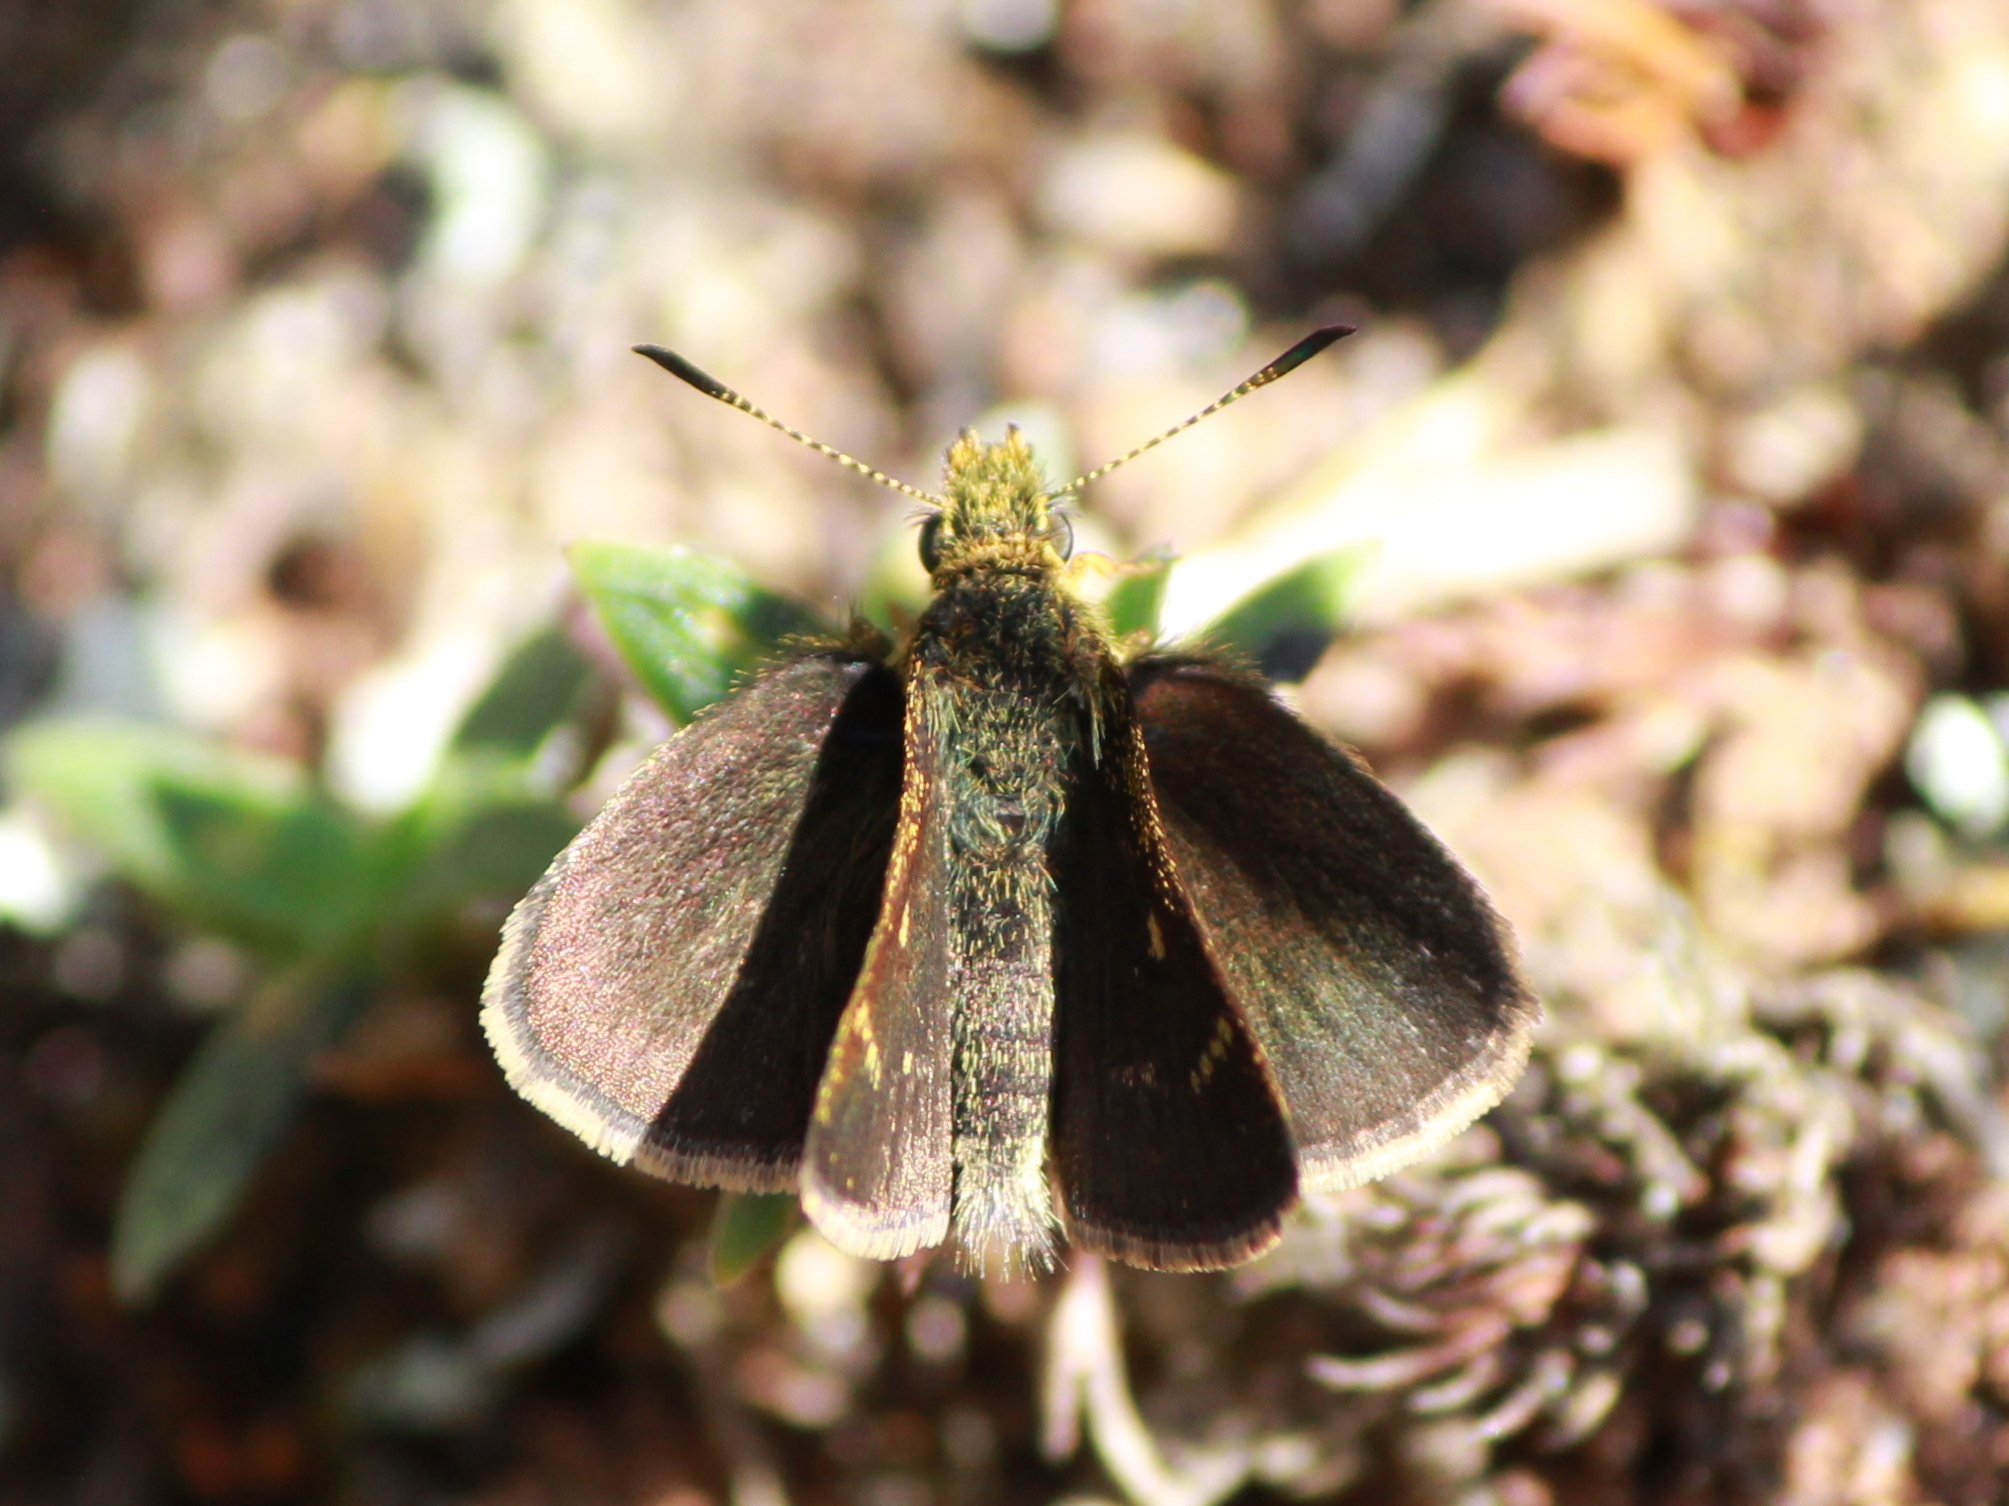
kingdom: Animalia
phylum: Arthropoda
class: Insecta
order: Lepidoptera
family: Hesperiidae
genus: Aeromachus
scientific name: Aeromachus dubius
